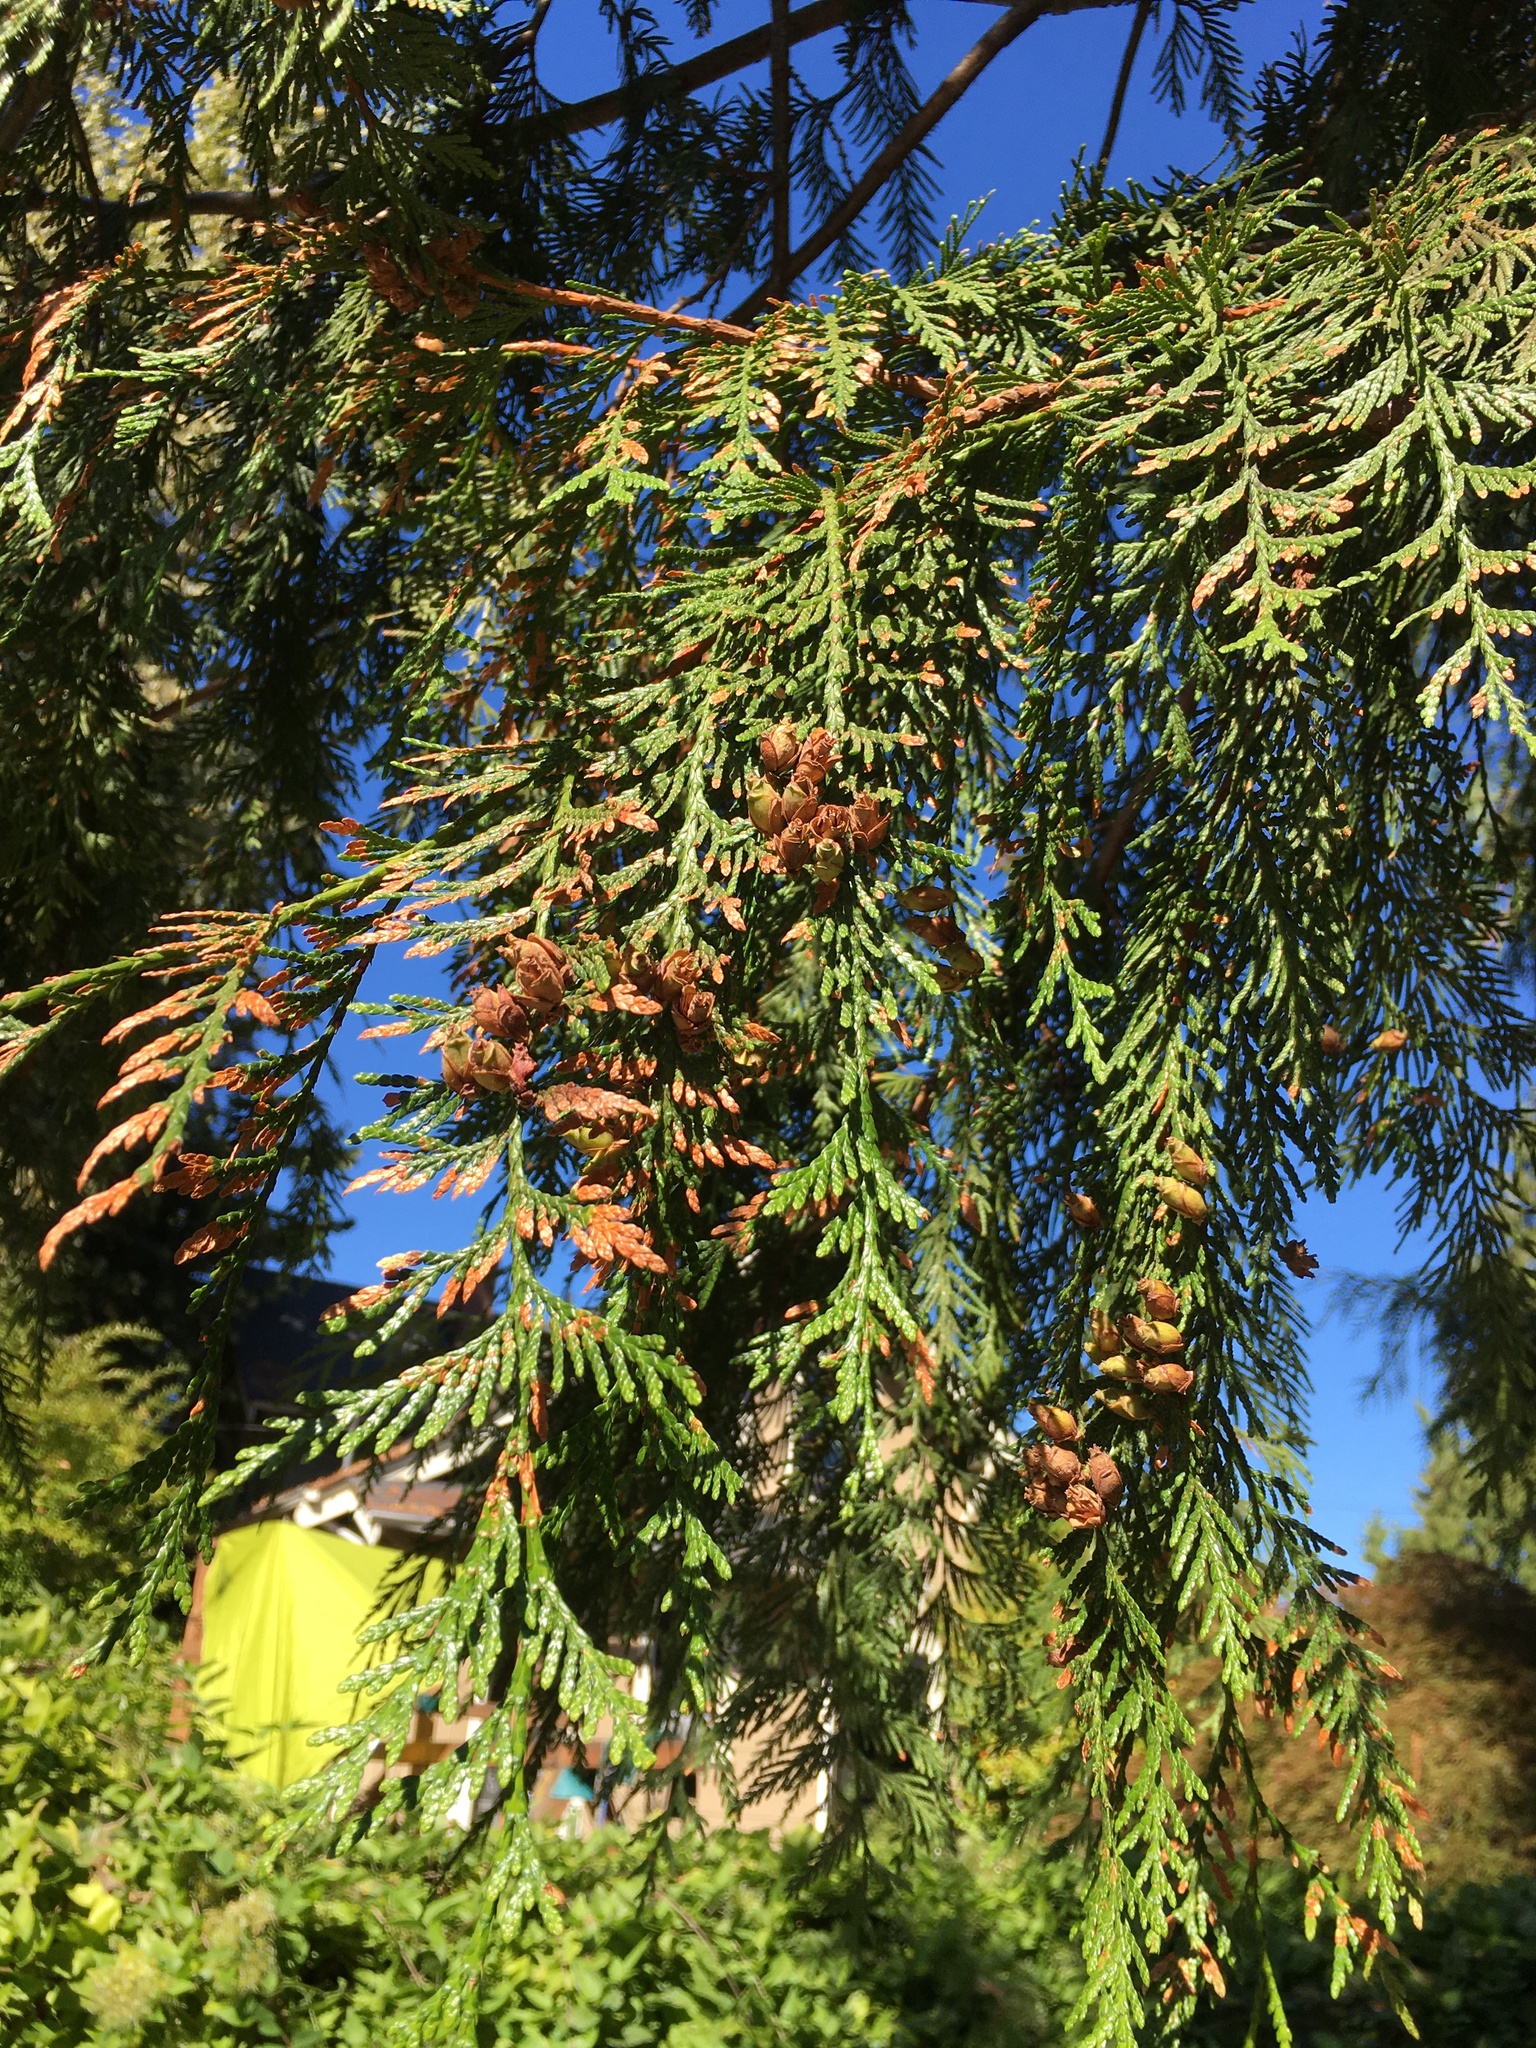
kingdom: Plantae
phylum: Tracheophyta
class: Pinopsida
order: Pinales
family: Cupressaceae
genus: Thuja
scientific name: Thuja plicata
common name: Western red-cedar
